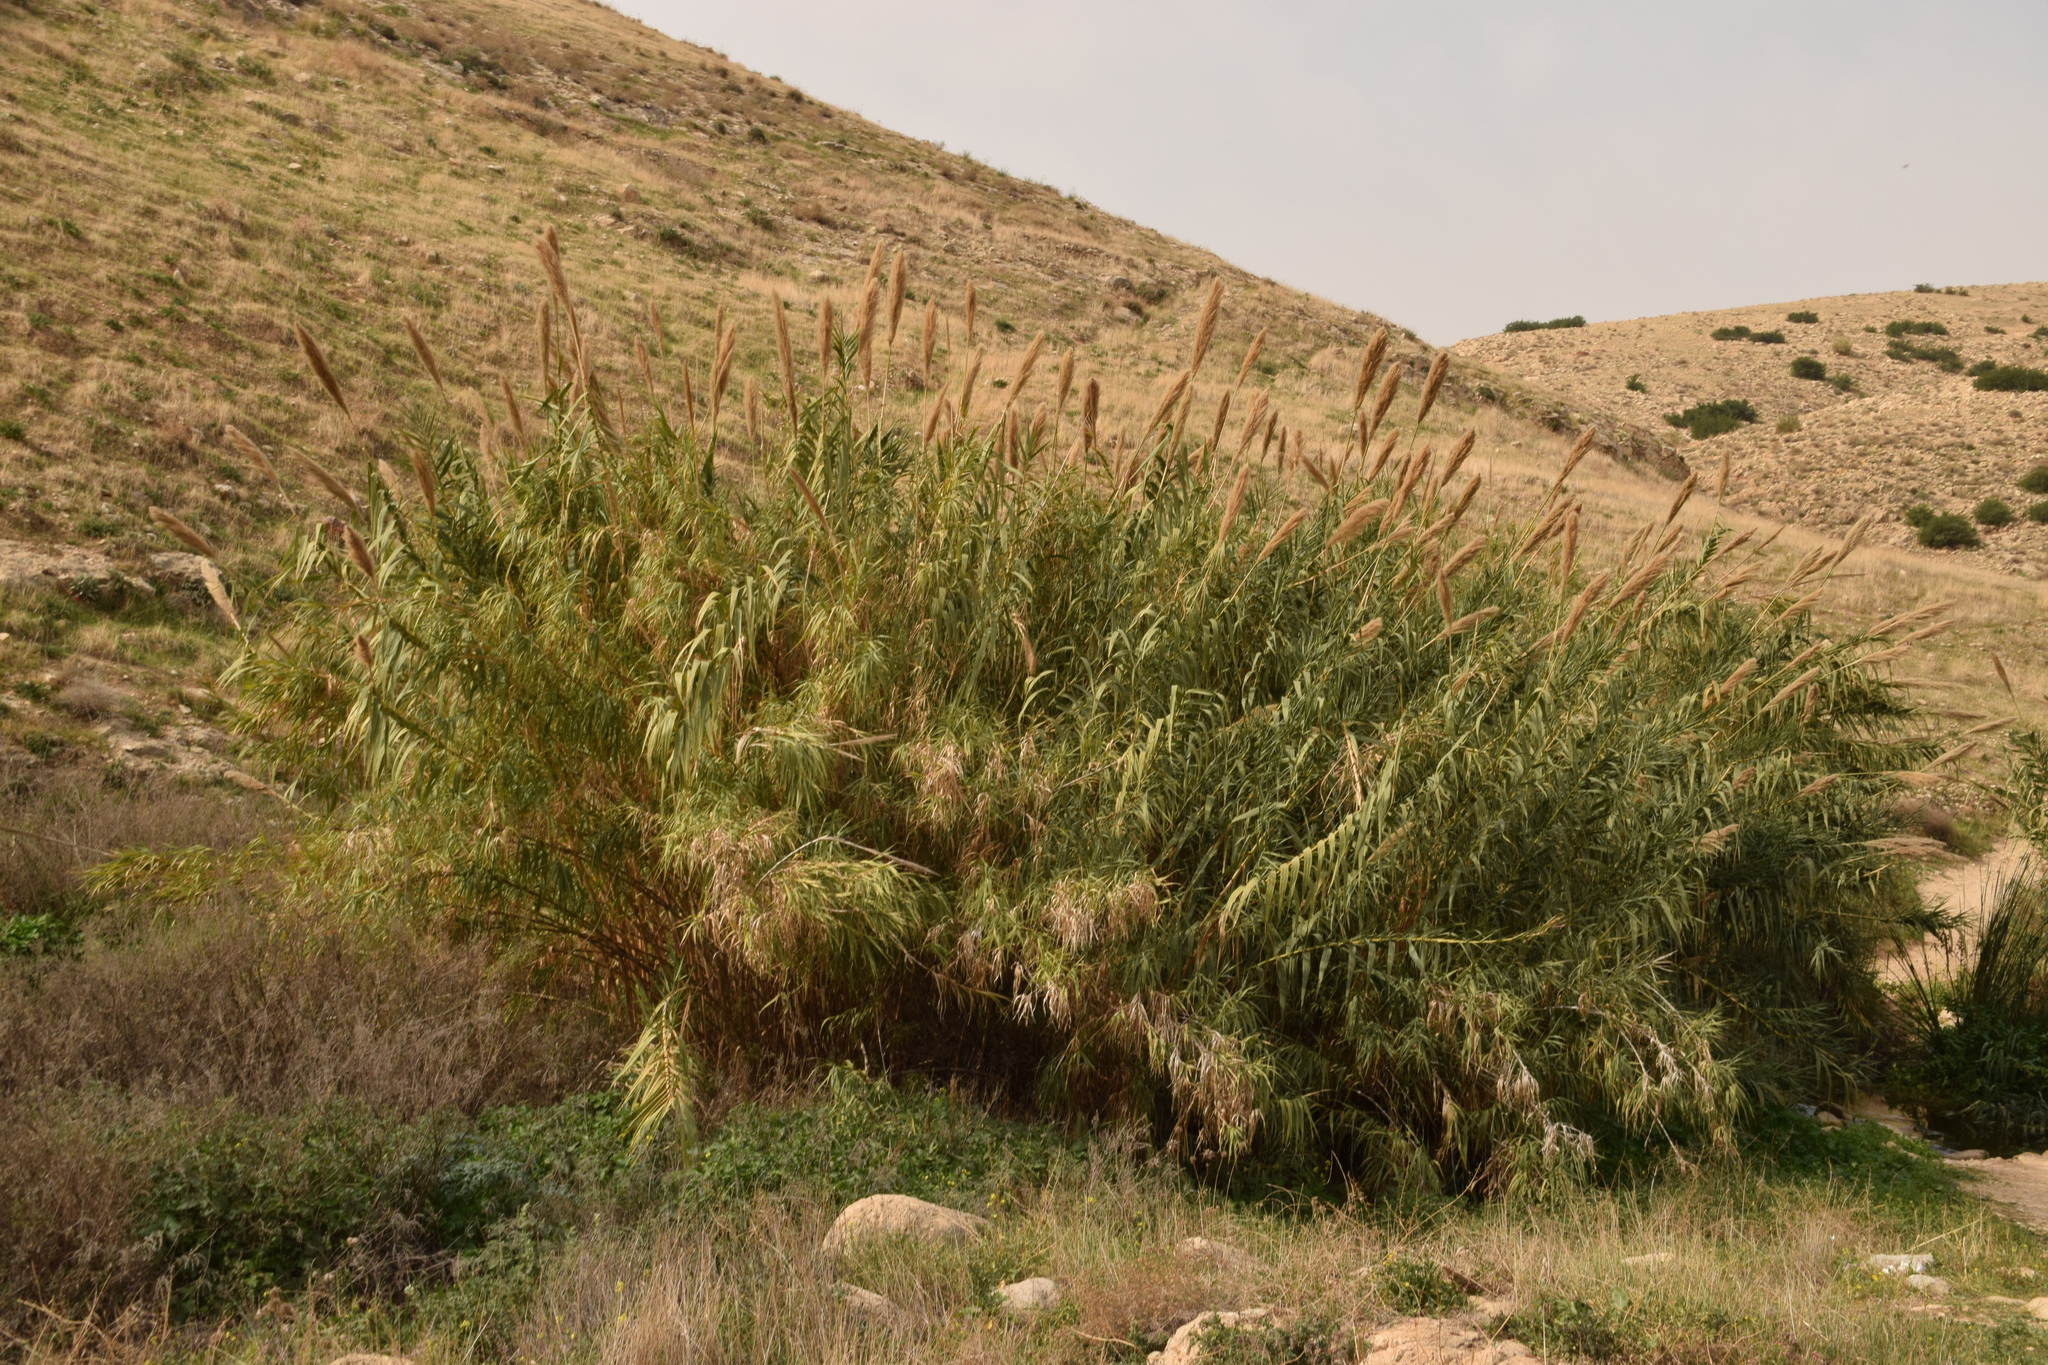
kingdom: Plantae
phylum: Tracheophyta
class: Liliopsida
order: Poales
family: Poaceae
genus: Arundo
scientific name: Arundo donax
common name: Giant reed
